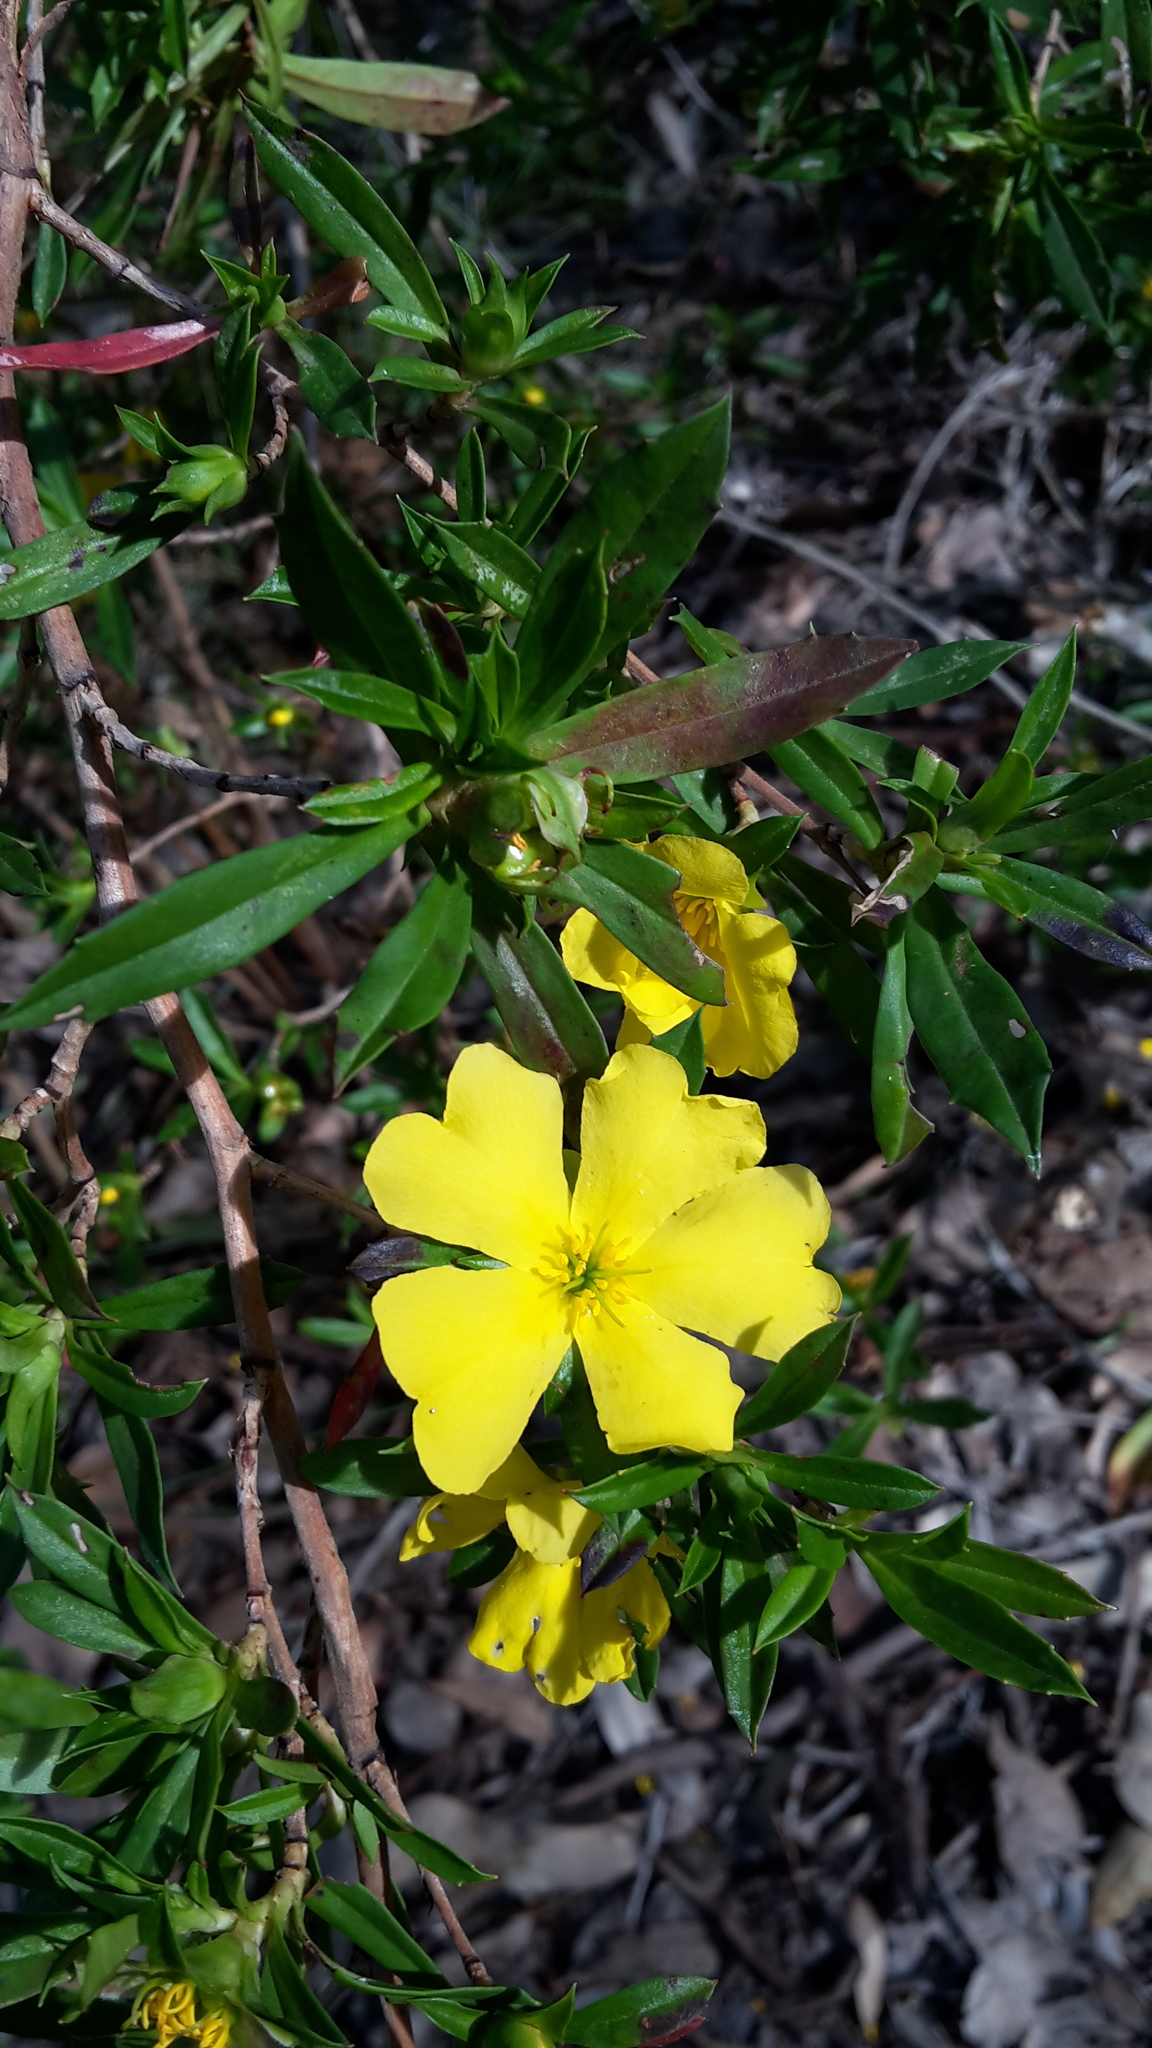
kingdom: Plantae
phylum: Tracheophyta
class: Magnoliopsida
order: Dilleniales
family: Dilleniaceae
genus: Hibbertia
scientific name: Hibbertia cuneiformis
